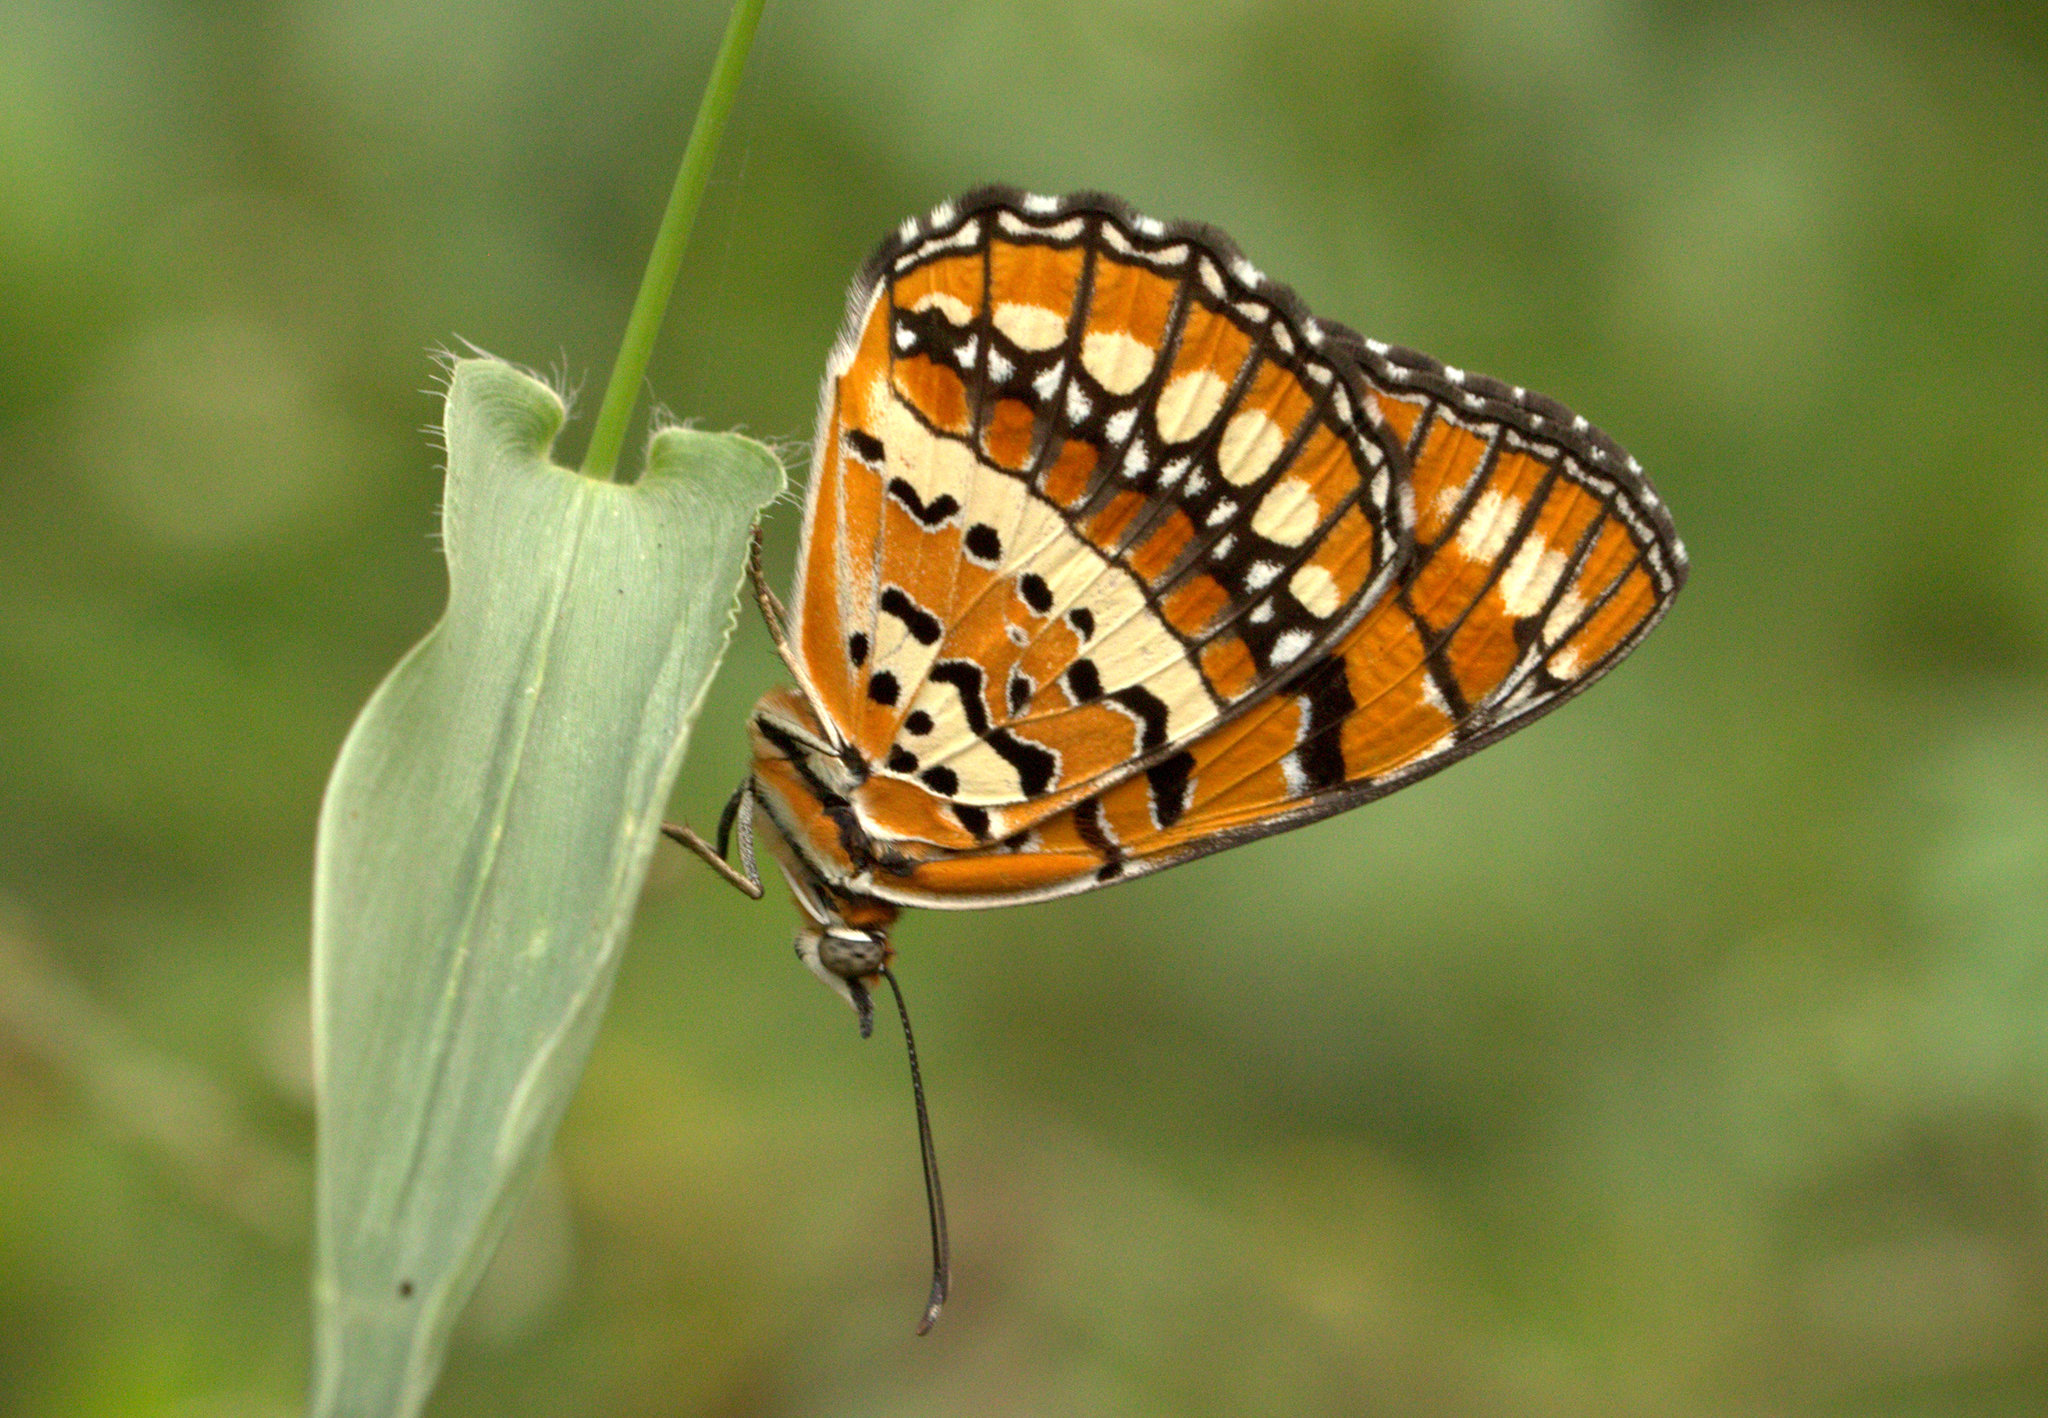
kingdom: Animalia
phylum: Arthropoda
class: Insecta
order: Lepidoptera
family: Nymphalidae
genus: Byblia
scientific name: Byblia ilithyia
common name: Spotted joker
